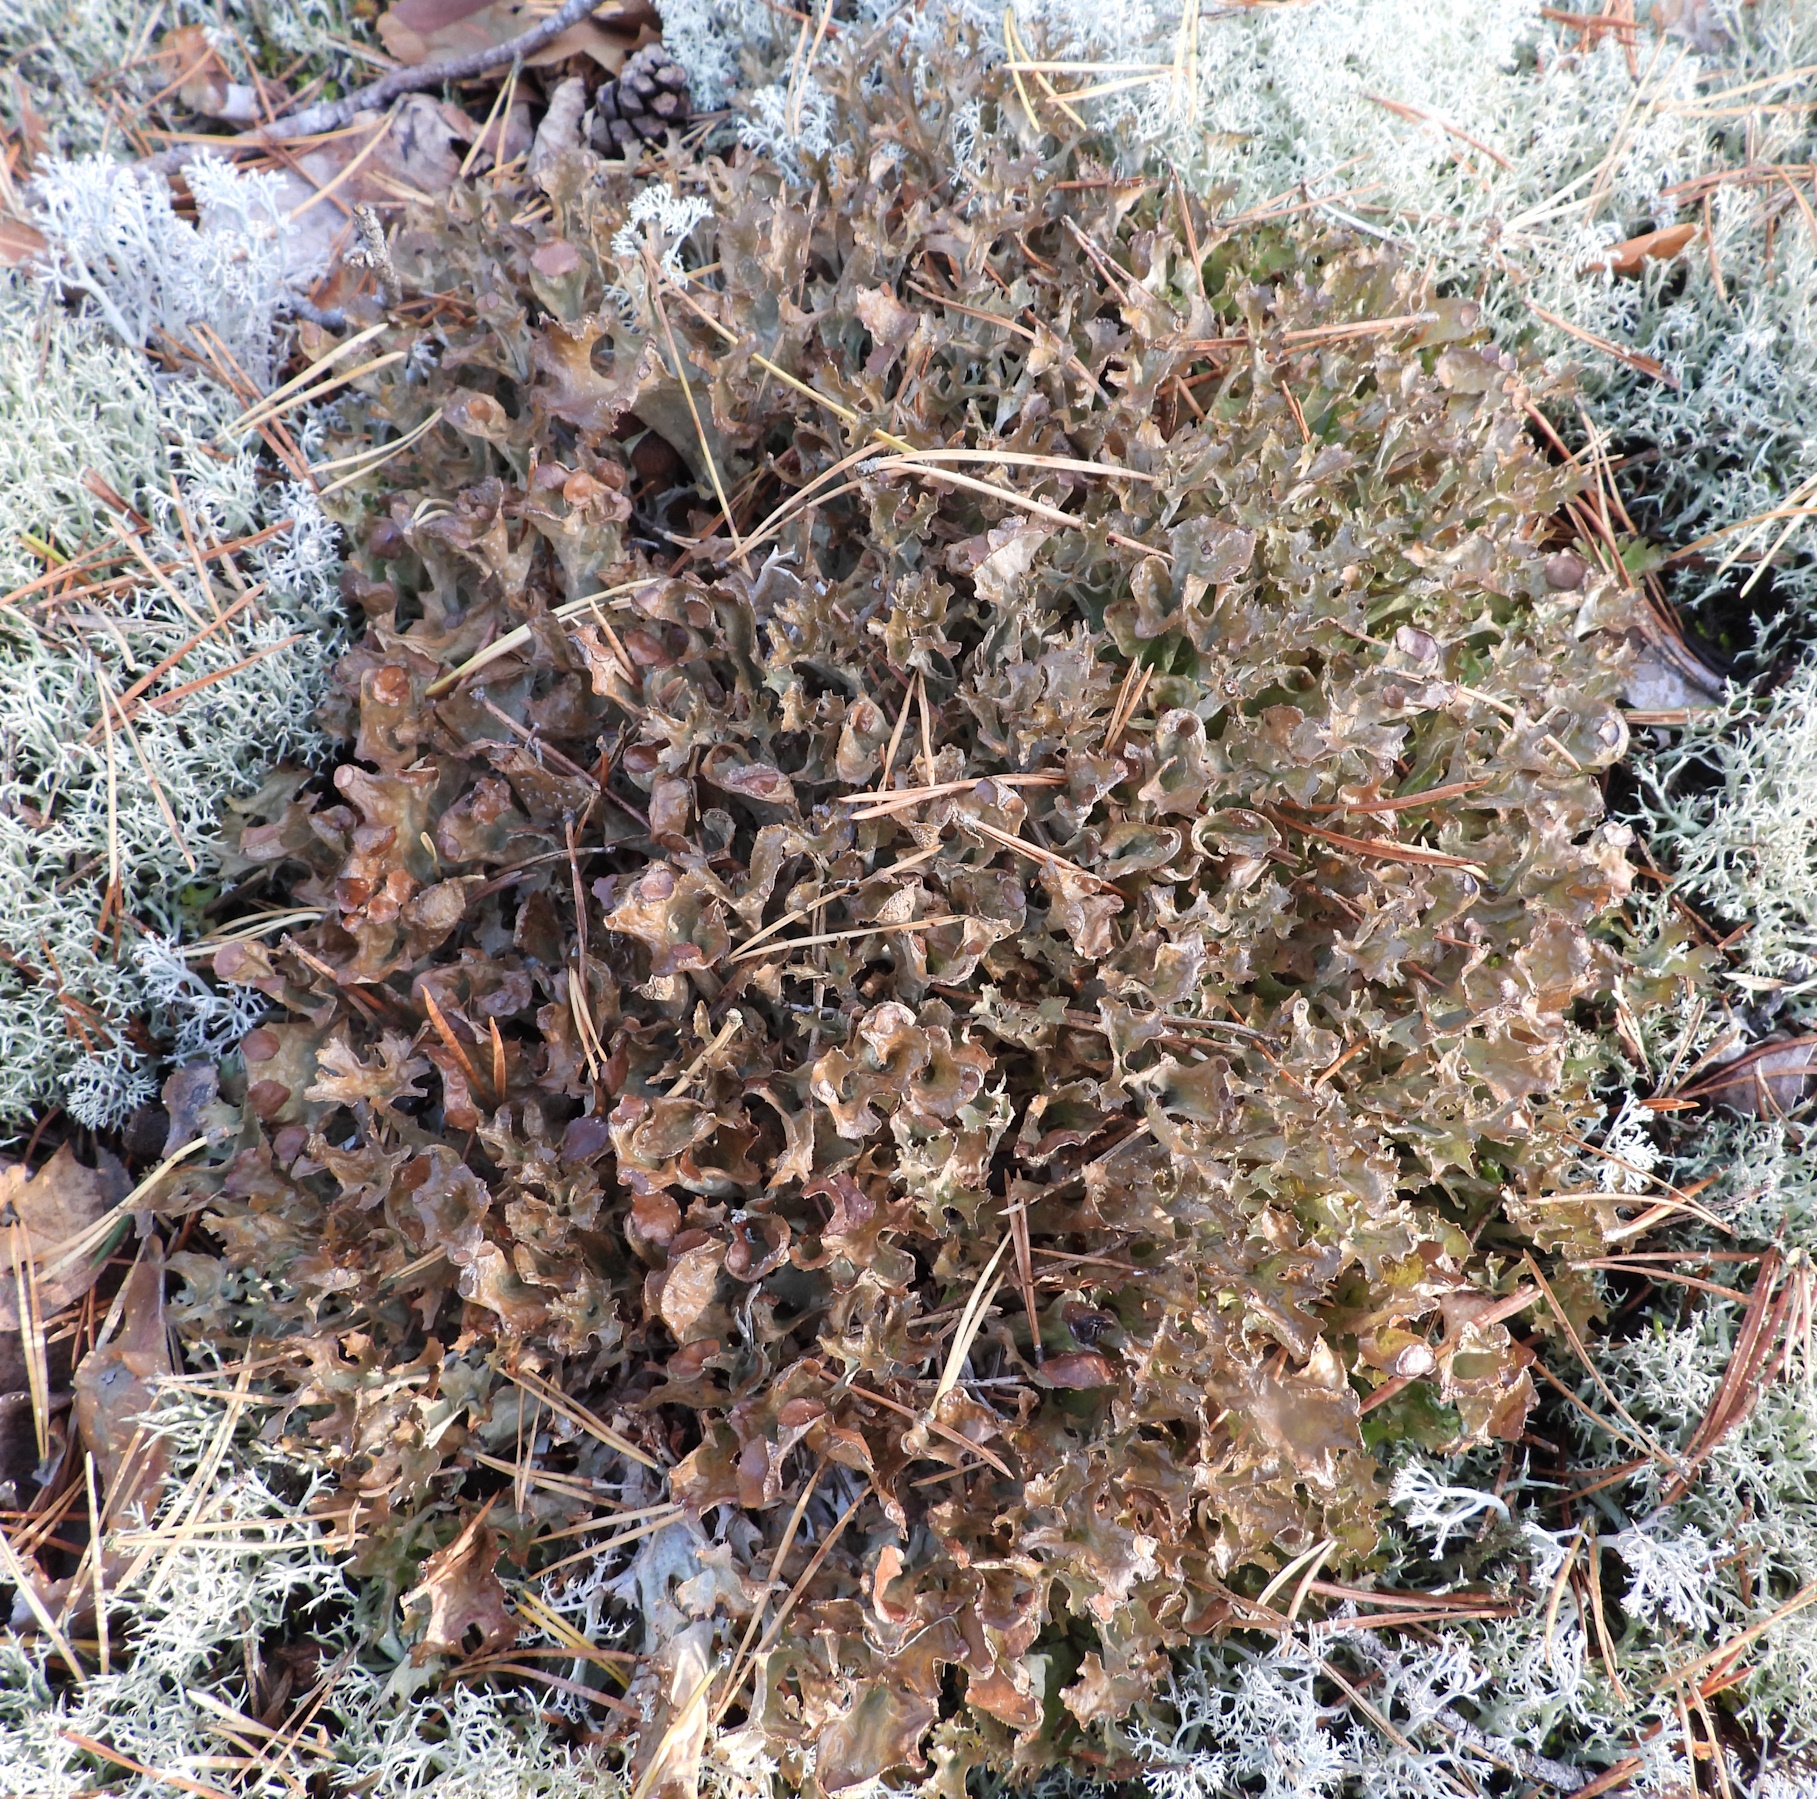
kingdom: Fungi
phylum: Ascomycota
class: Lecanoromycetes
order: Lecanorales
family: Parmeliaceae
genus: Cetraria
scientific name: Cetraria islandica
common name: Iceland lichen
